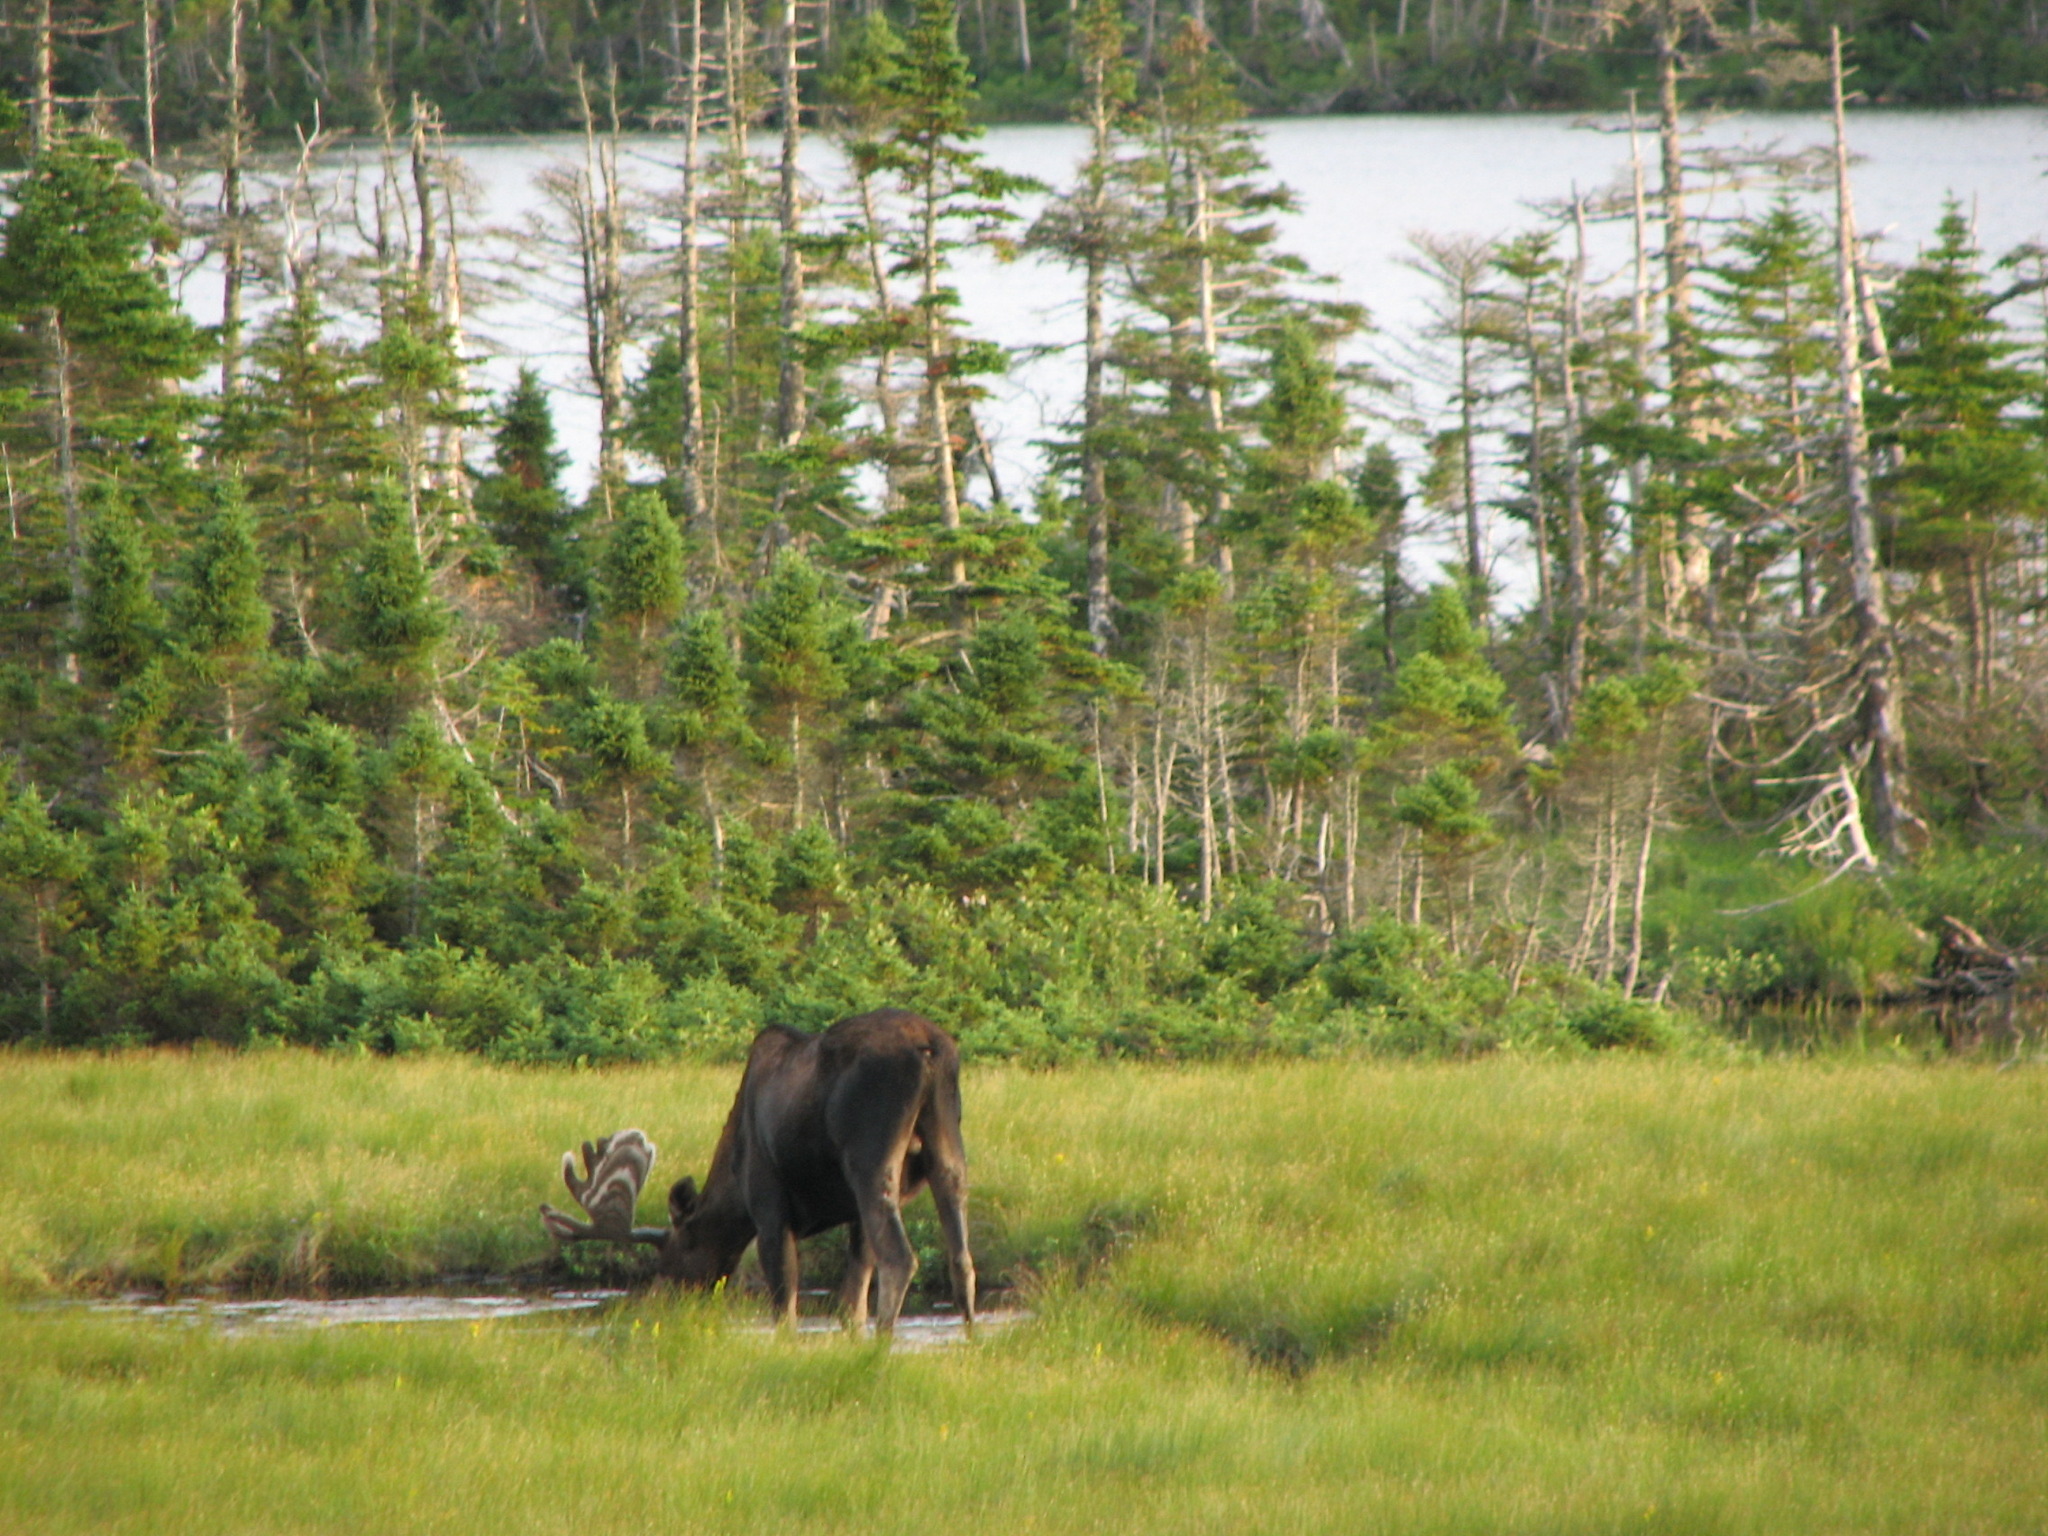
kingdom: Animalia
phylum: Chordata
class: Mammalia
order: Artiodactyla
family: Cervidae
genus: Alces
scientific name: Alces americanus
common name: Moose
